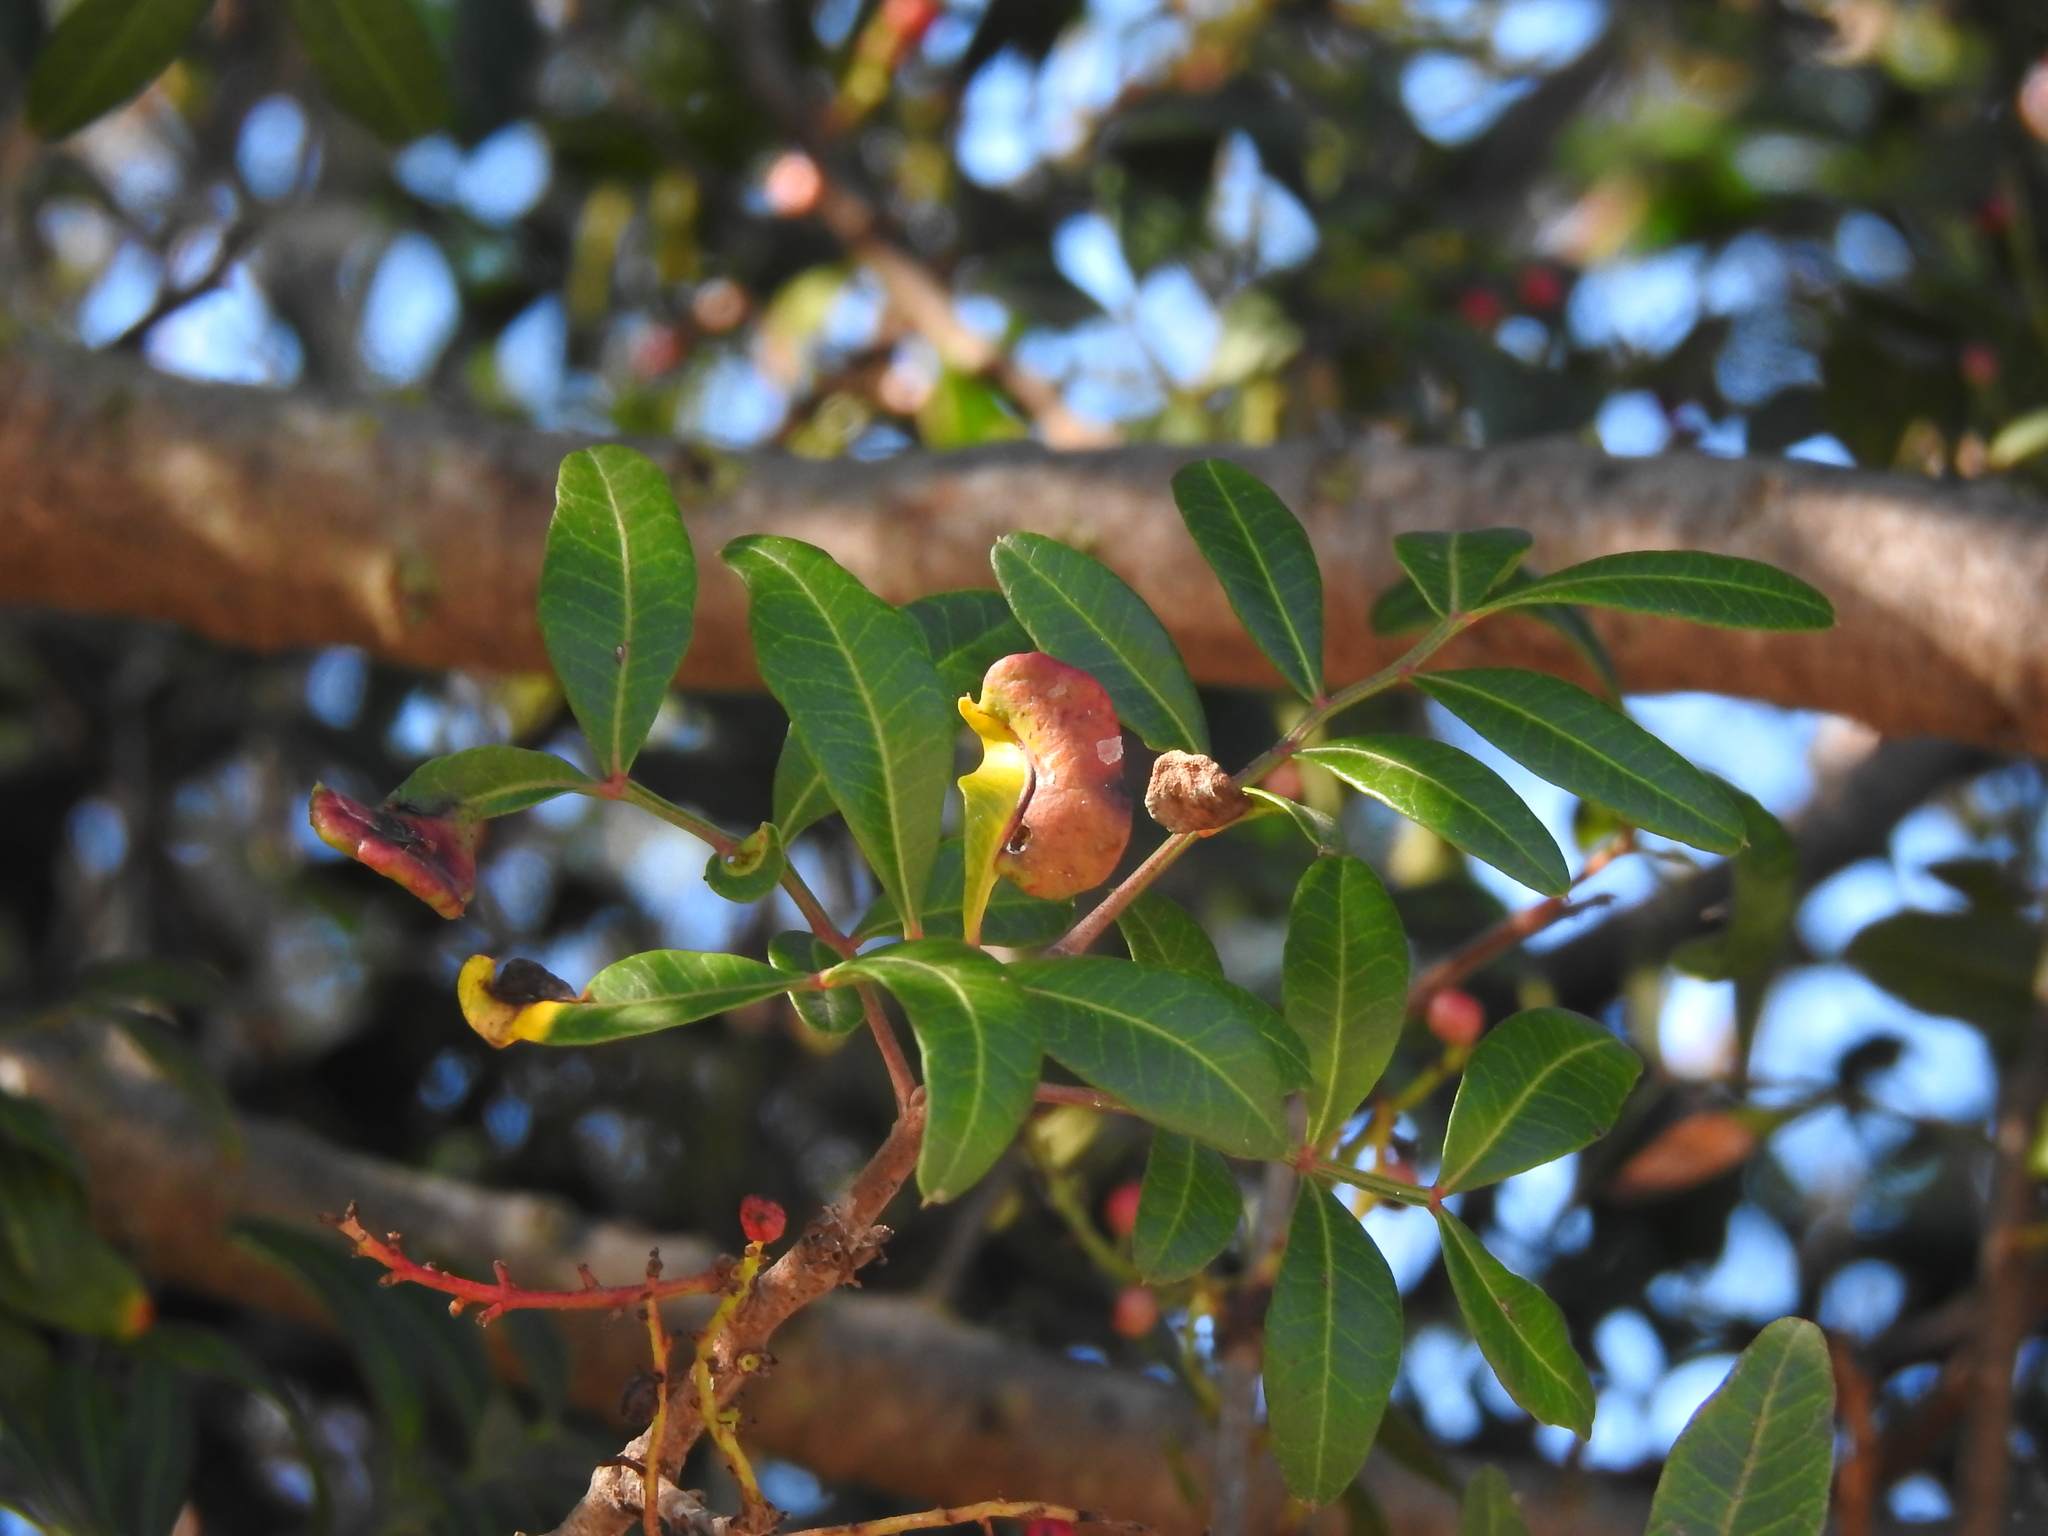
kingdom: Animalia
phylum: Arthropoda
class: Insecta
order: Hemiptera
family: Aphididae
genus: Aploneura
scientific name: Aploneura lentisci
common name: Mealy grass root aphid
